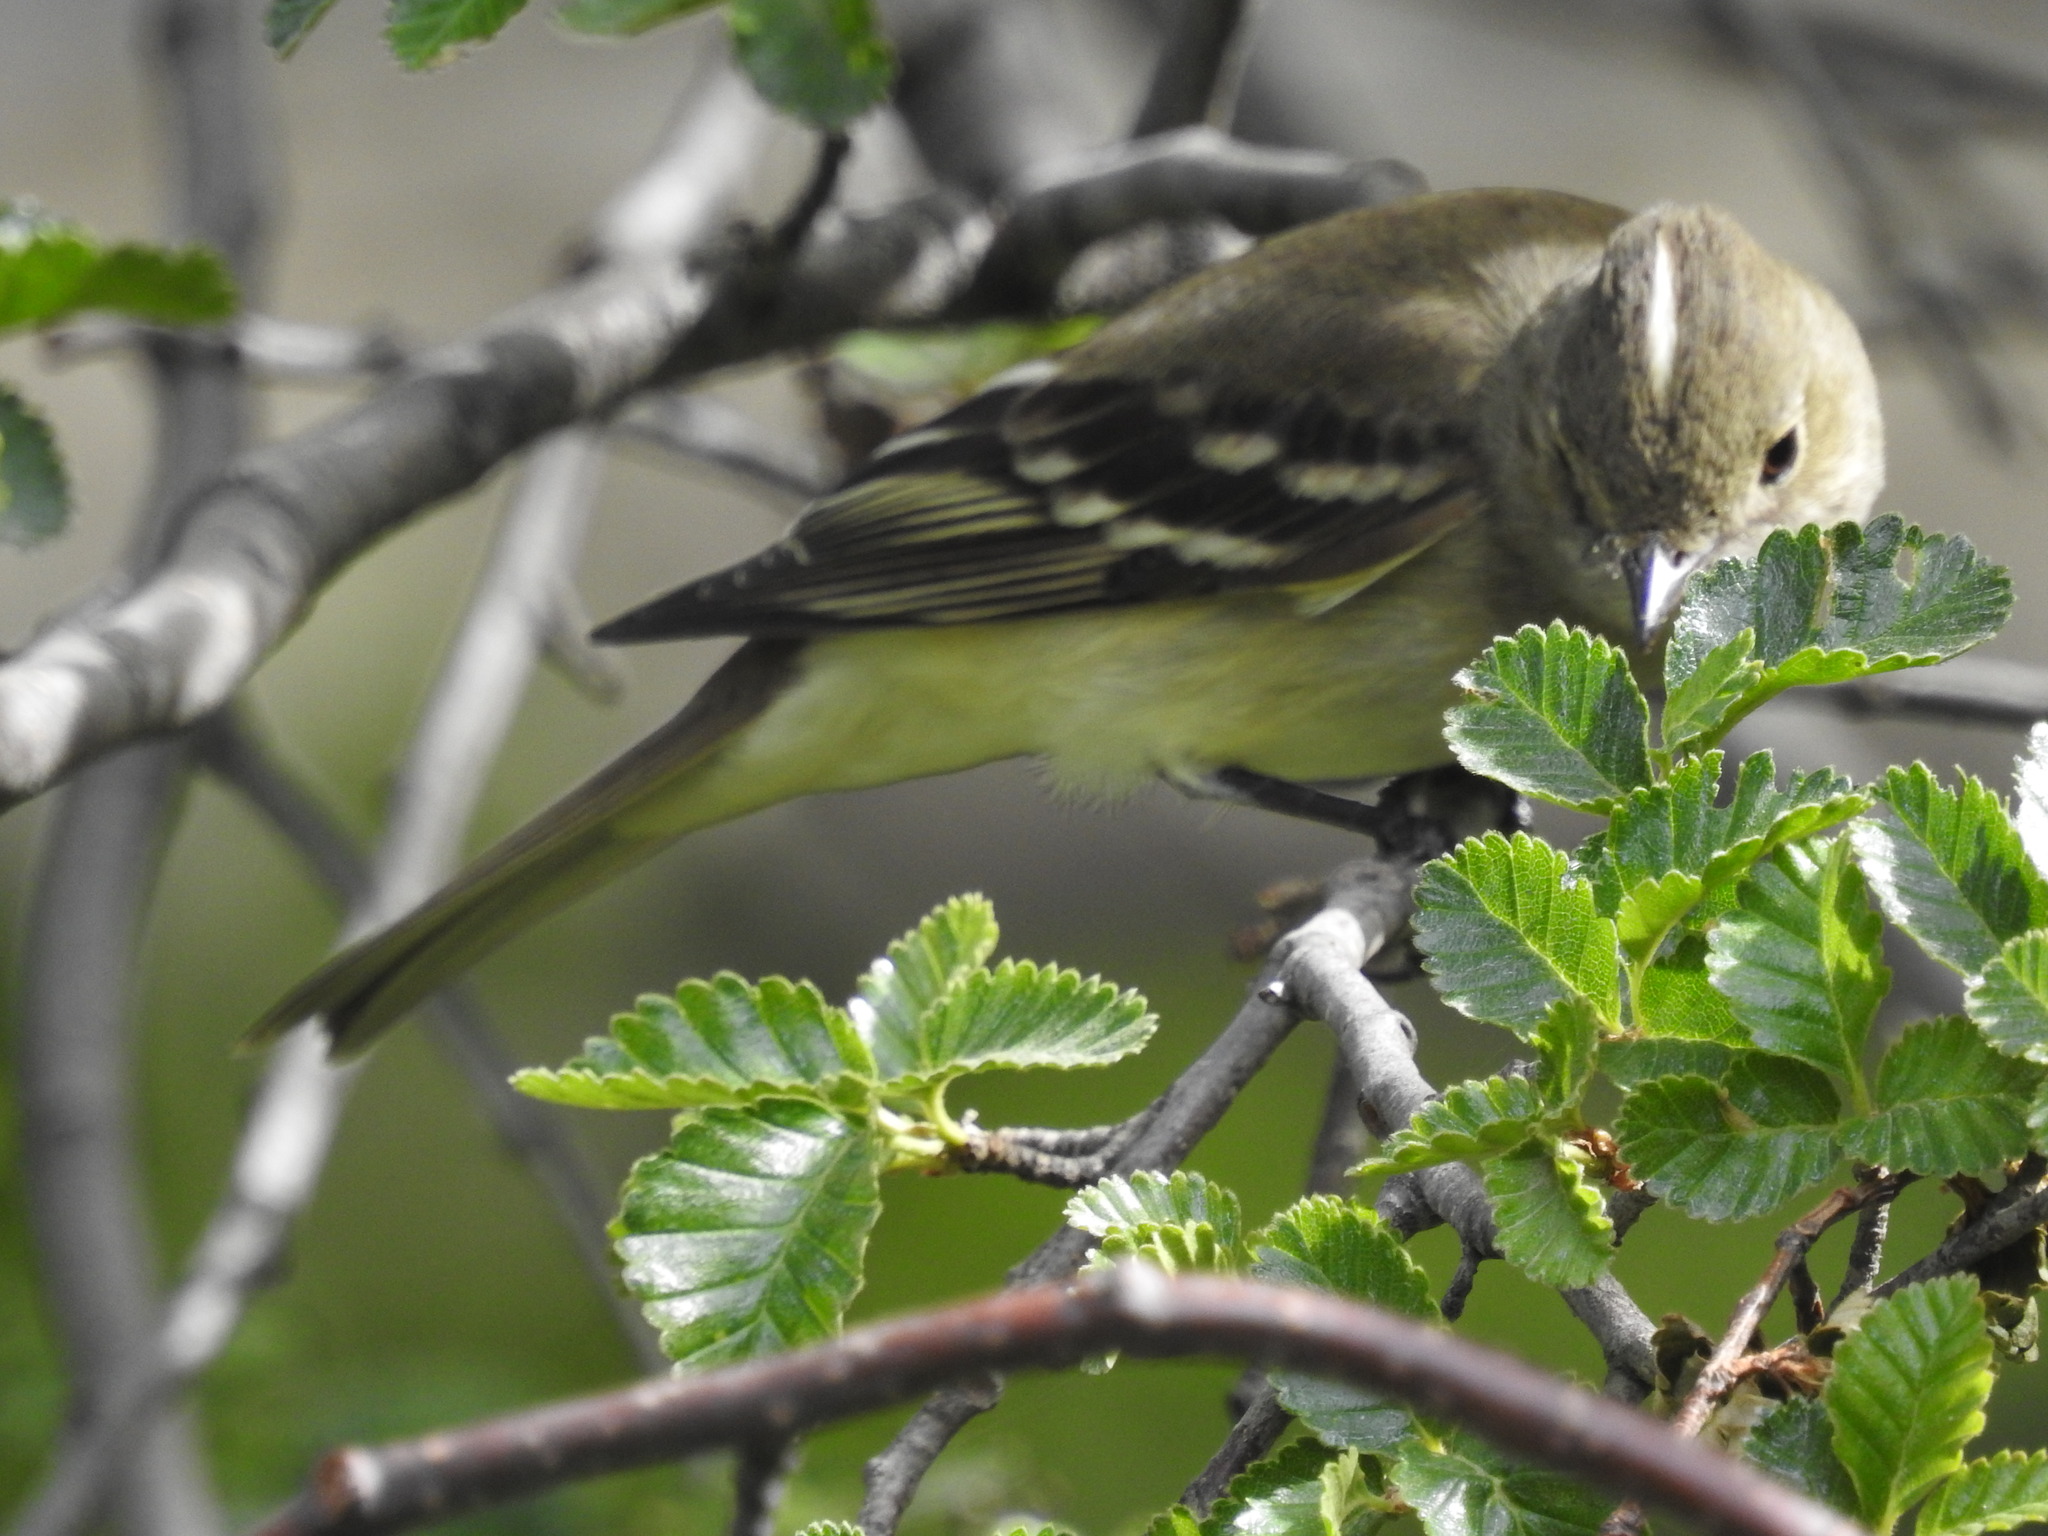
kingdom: Animalia
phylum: Chordata
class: Aves
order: Passeriformes
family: Tyrannidae
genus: Elaenia
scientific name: Elaenia albiceps
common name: White-crested elaenia
